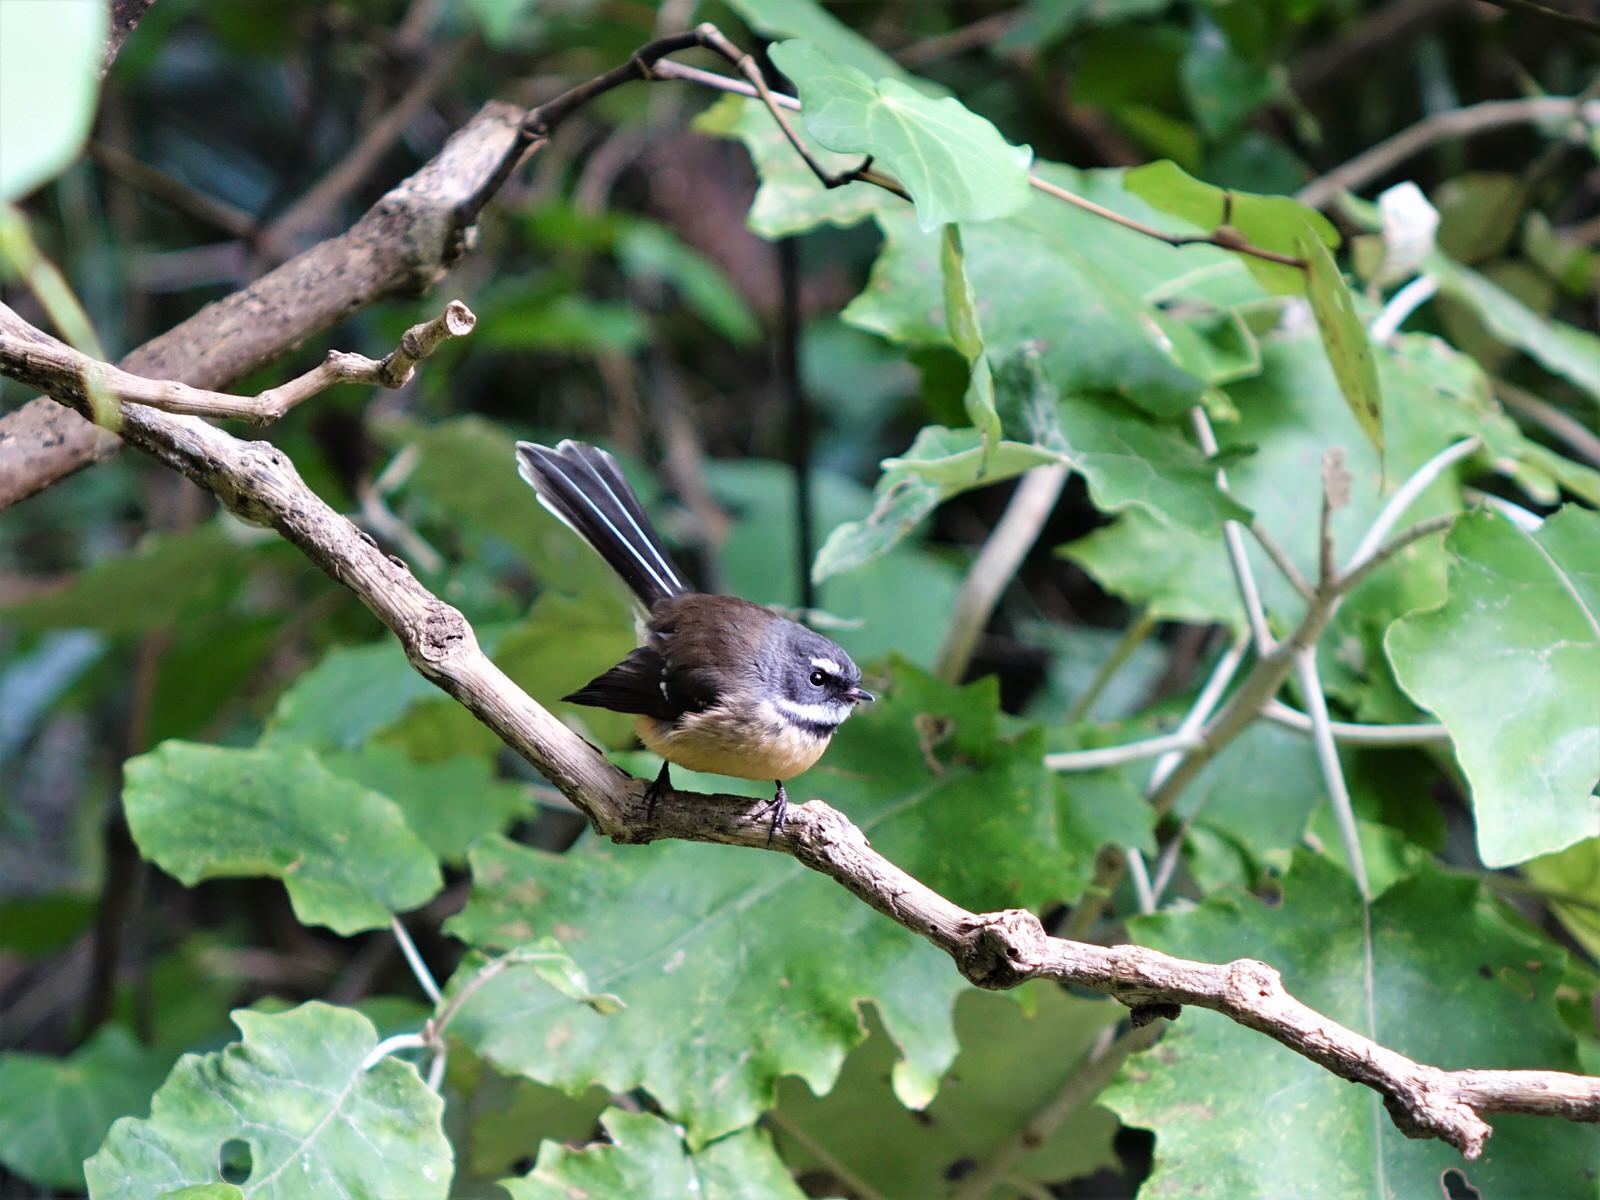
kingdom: Animalia
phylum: Chordata
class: Aves
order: Passeriformes
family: Rhipiduridae
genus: Rhipidura
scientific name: Rhipidura fuliginosa
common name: New zealand fantail
